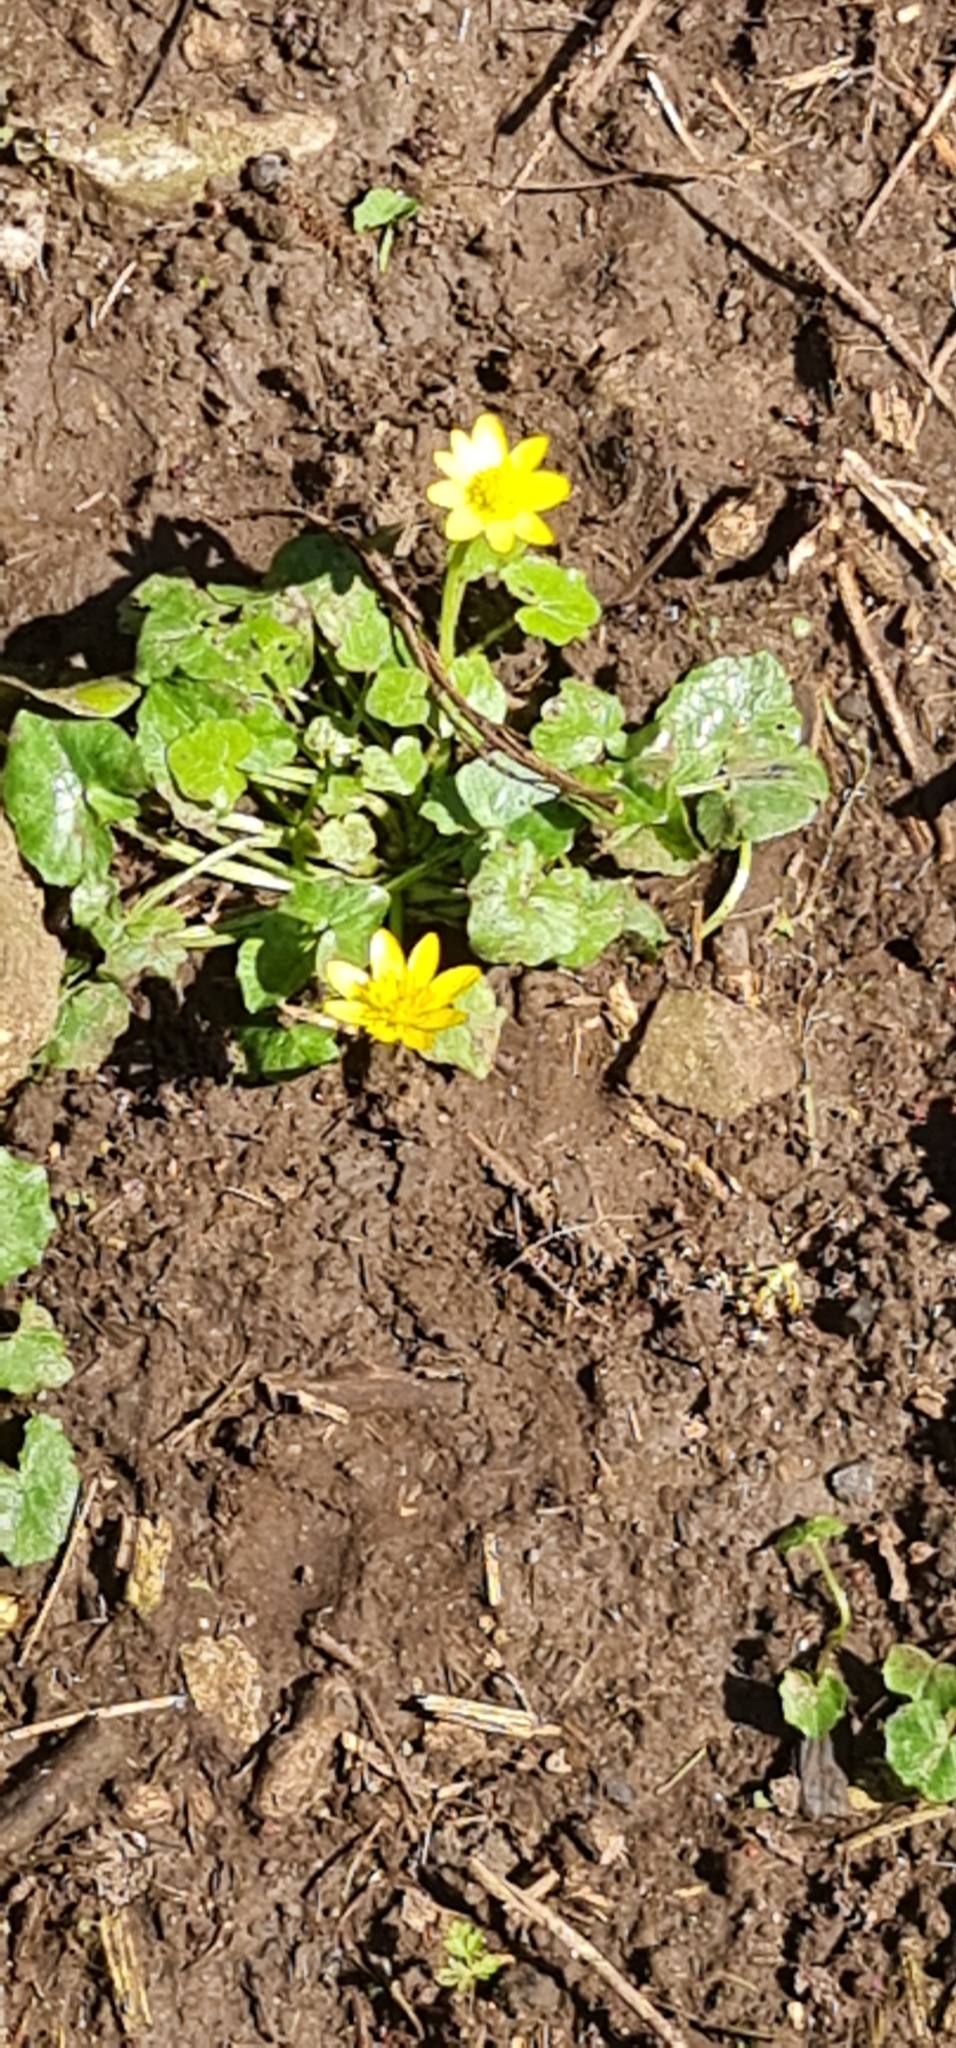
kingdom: Plantae
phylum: Tracheophyta
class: Magnoliopsida
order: Ranunculales
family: Ranunculaceae
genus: Ficaria
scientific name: Ficaria verna
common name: Lesser celandine
